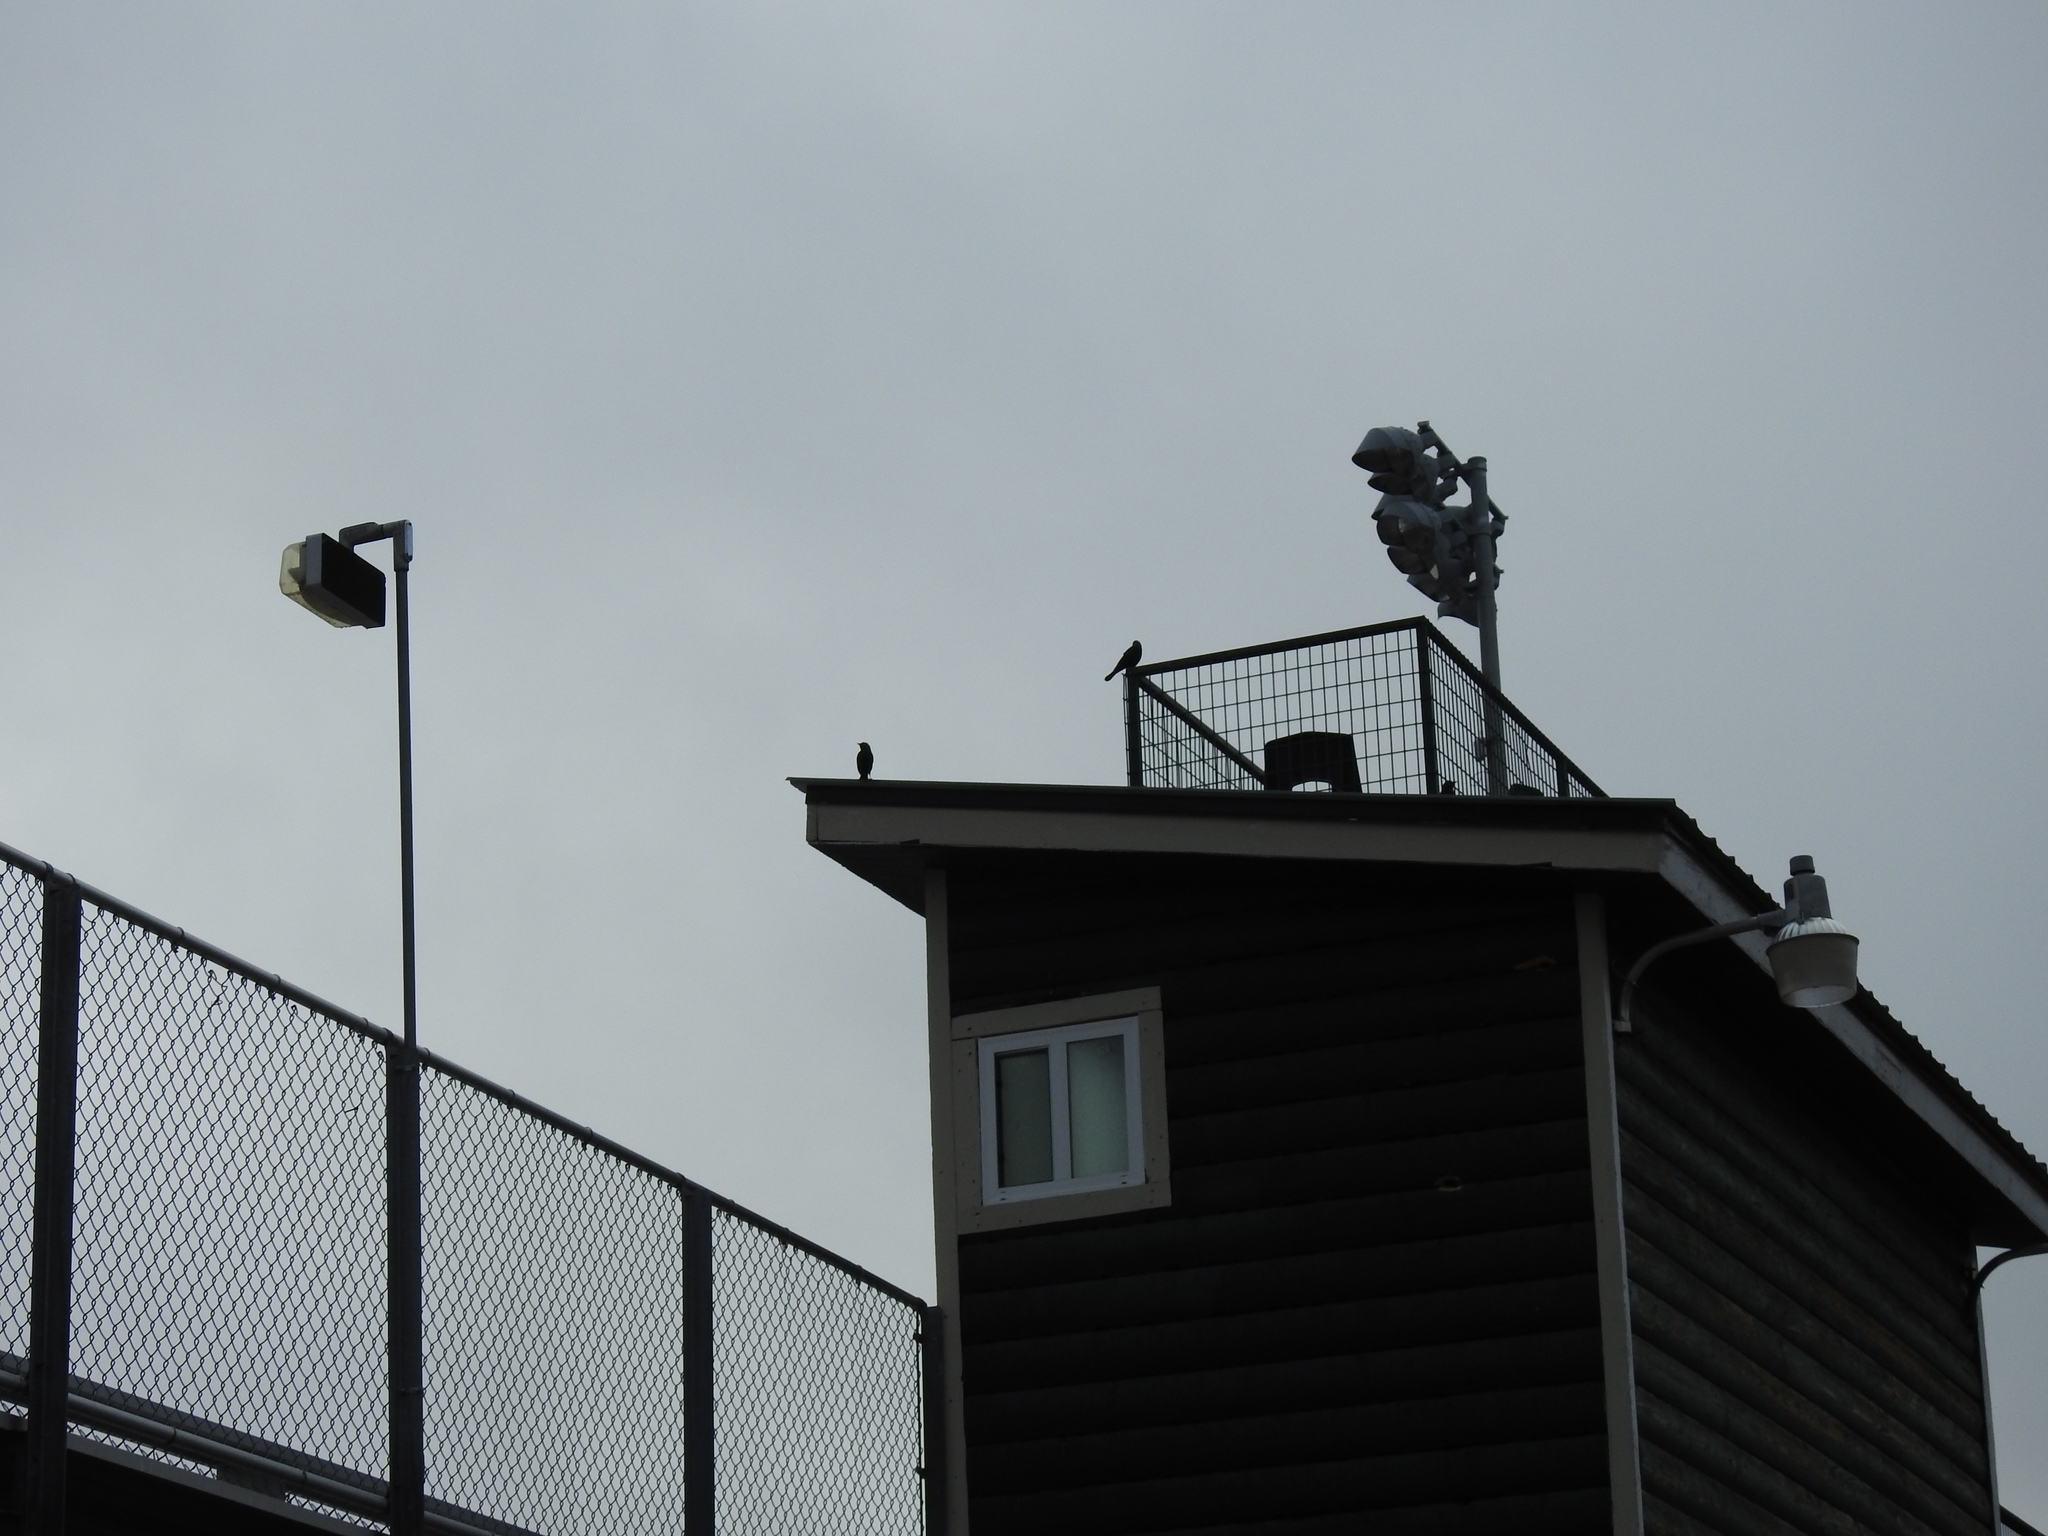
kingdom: Animalia
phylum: Chordata
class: Aves
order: Passeriformes
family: Icteridae
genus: Euphagus
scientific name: Euphagus cyanocephalus
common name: Brewer's blackbird
